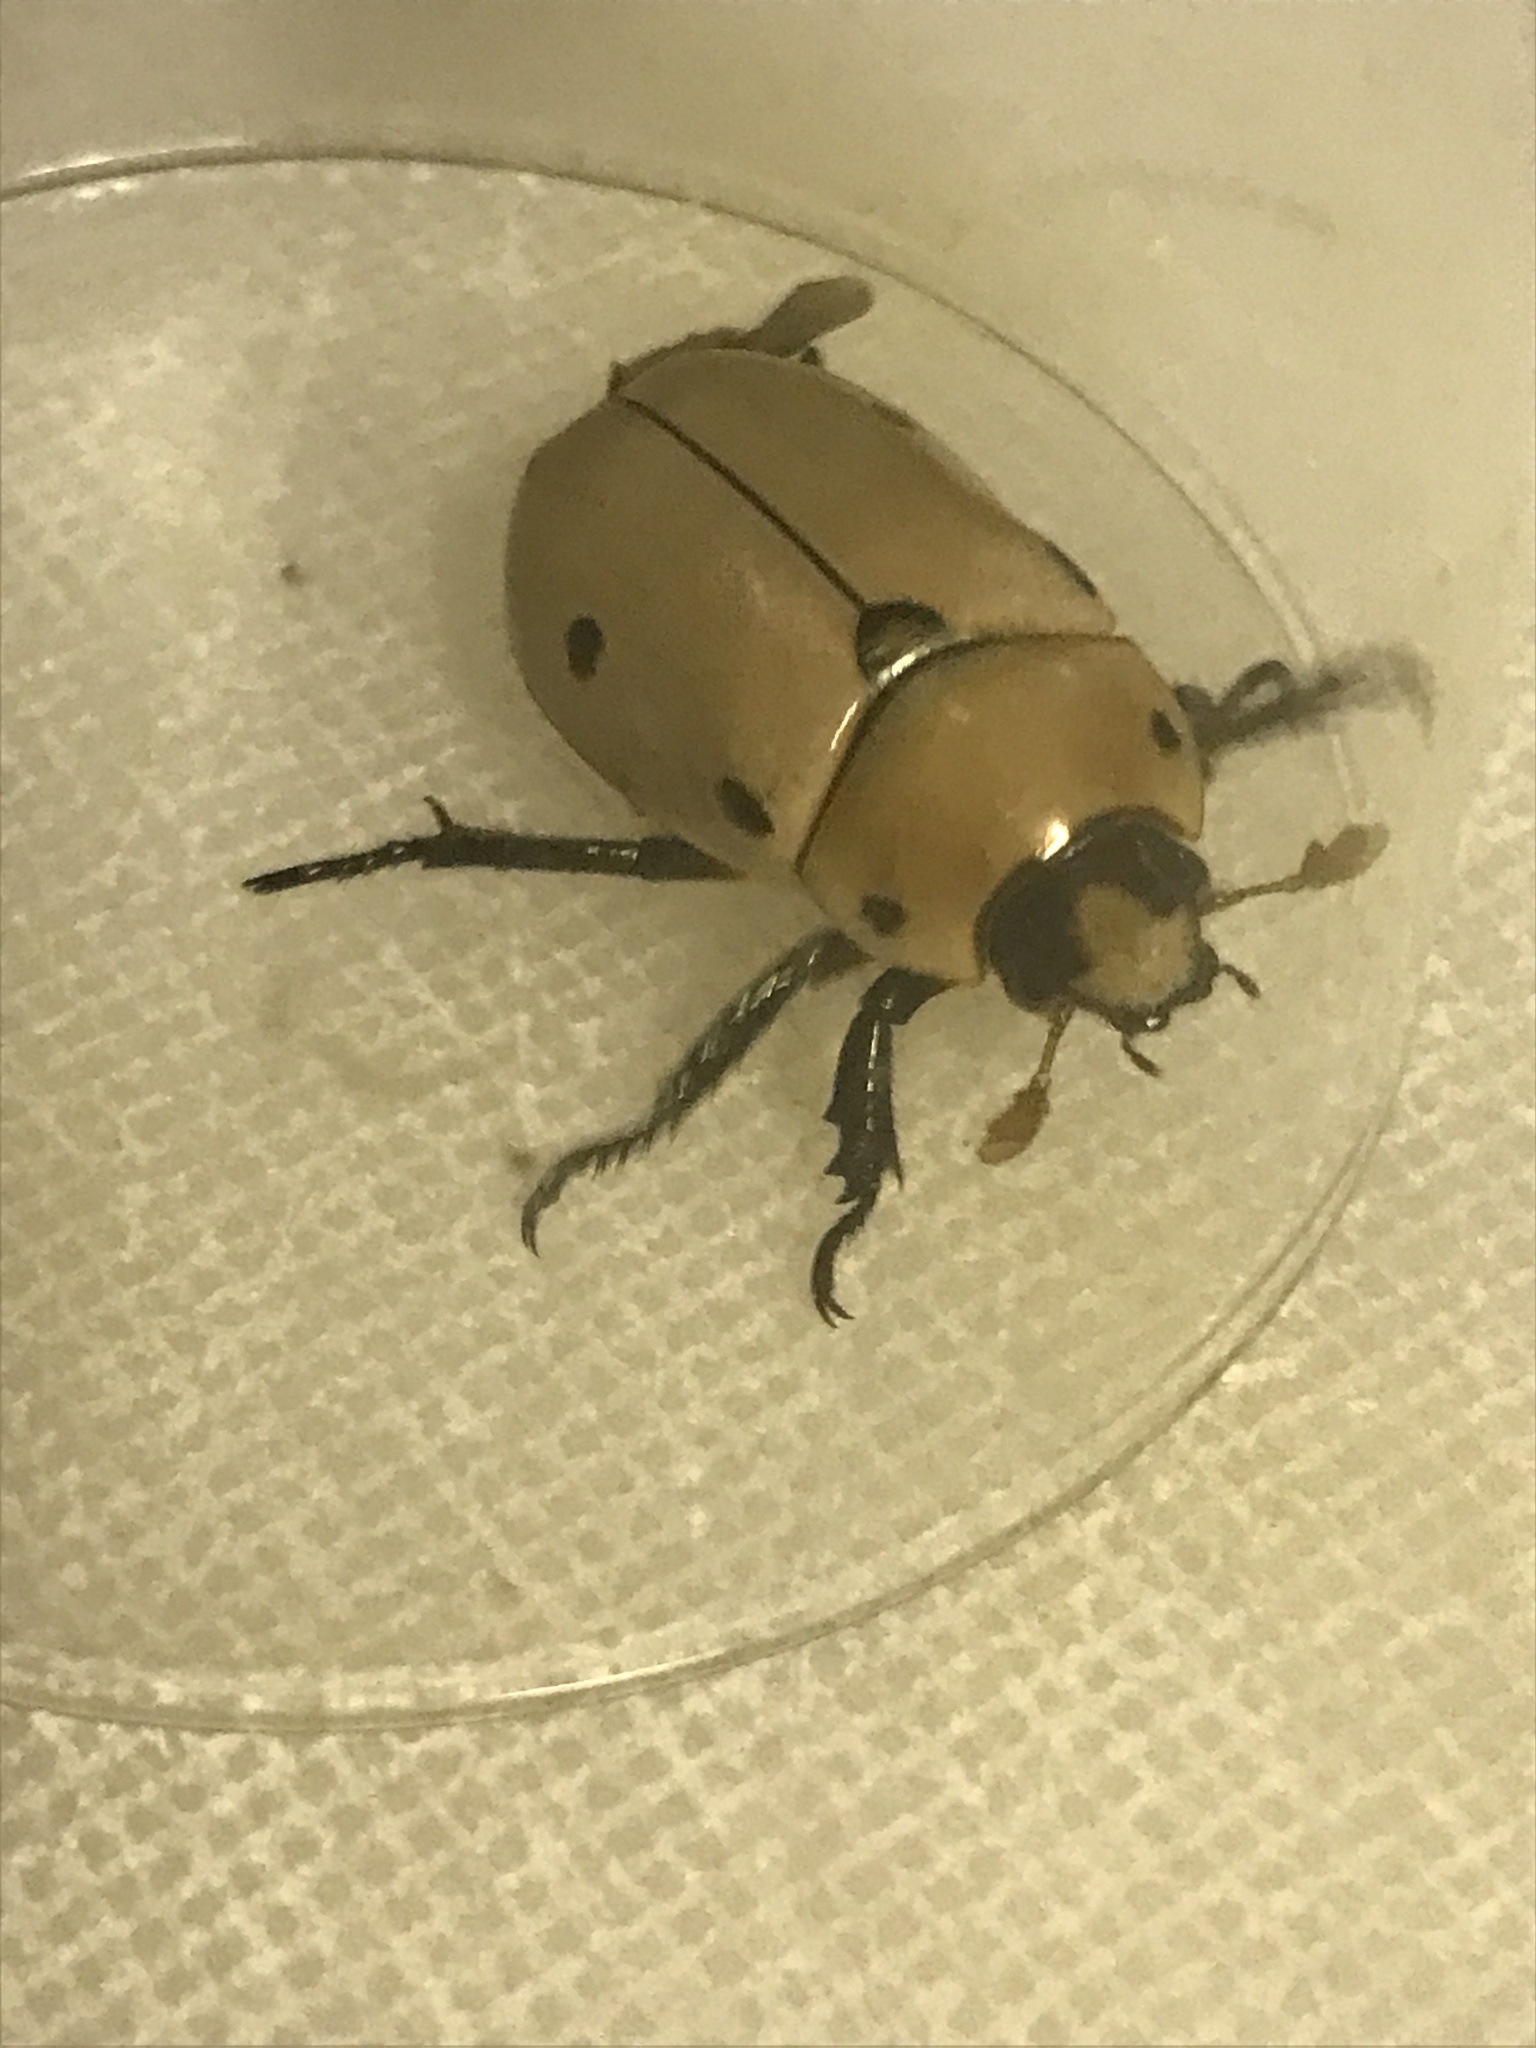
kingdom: Animalia
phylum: Arthropoda
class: Insecta
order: Coleoptera
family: Scarabaeidae
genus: Pelidnota
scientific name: Pelidnota punctata
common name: Grapevine beetle
